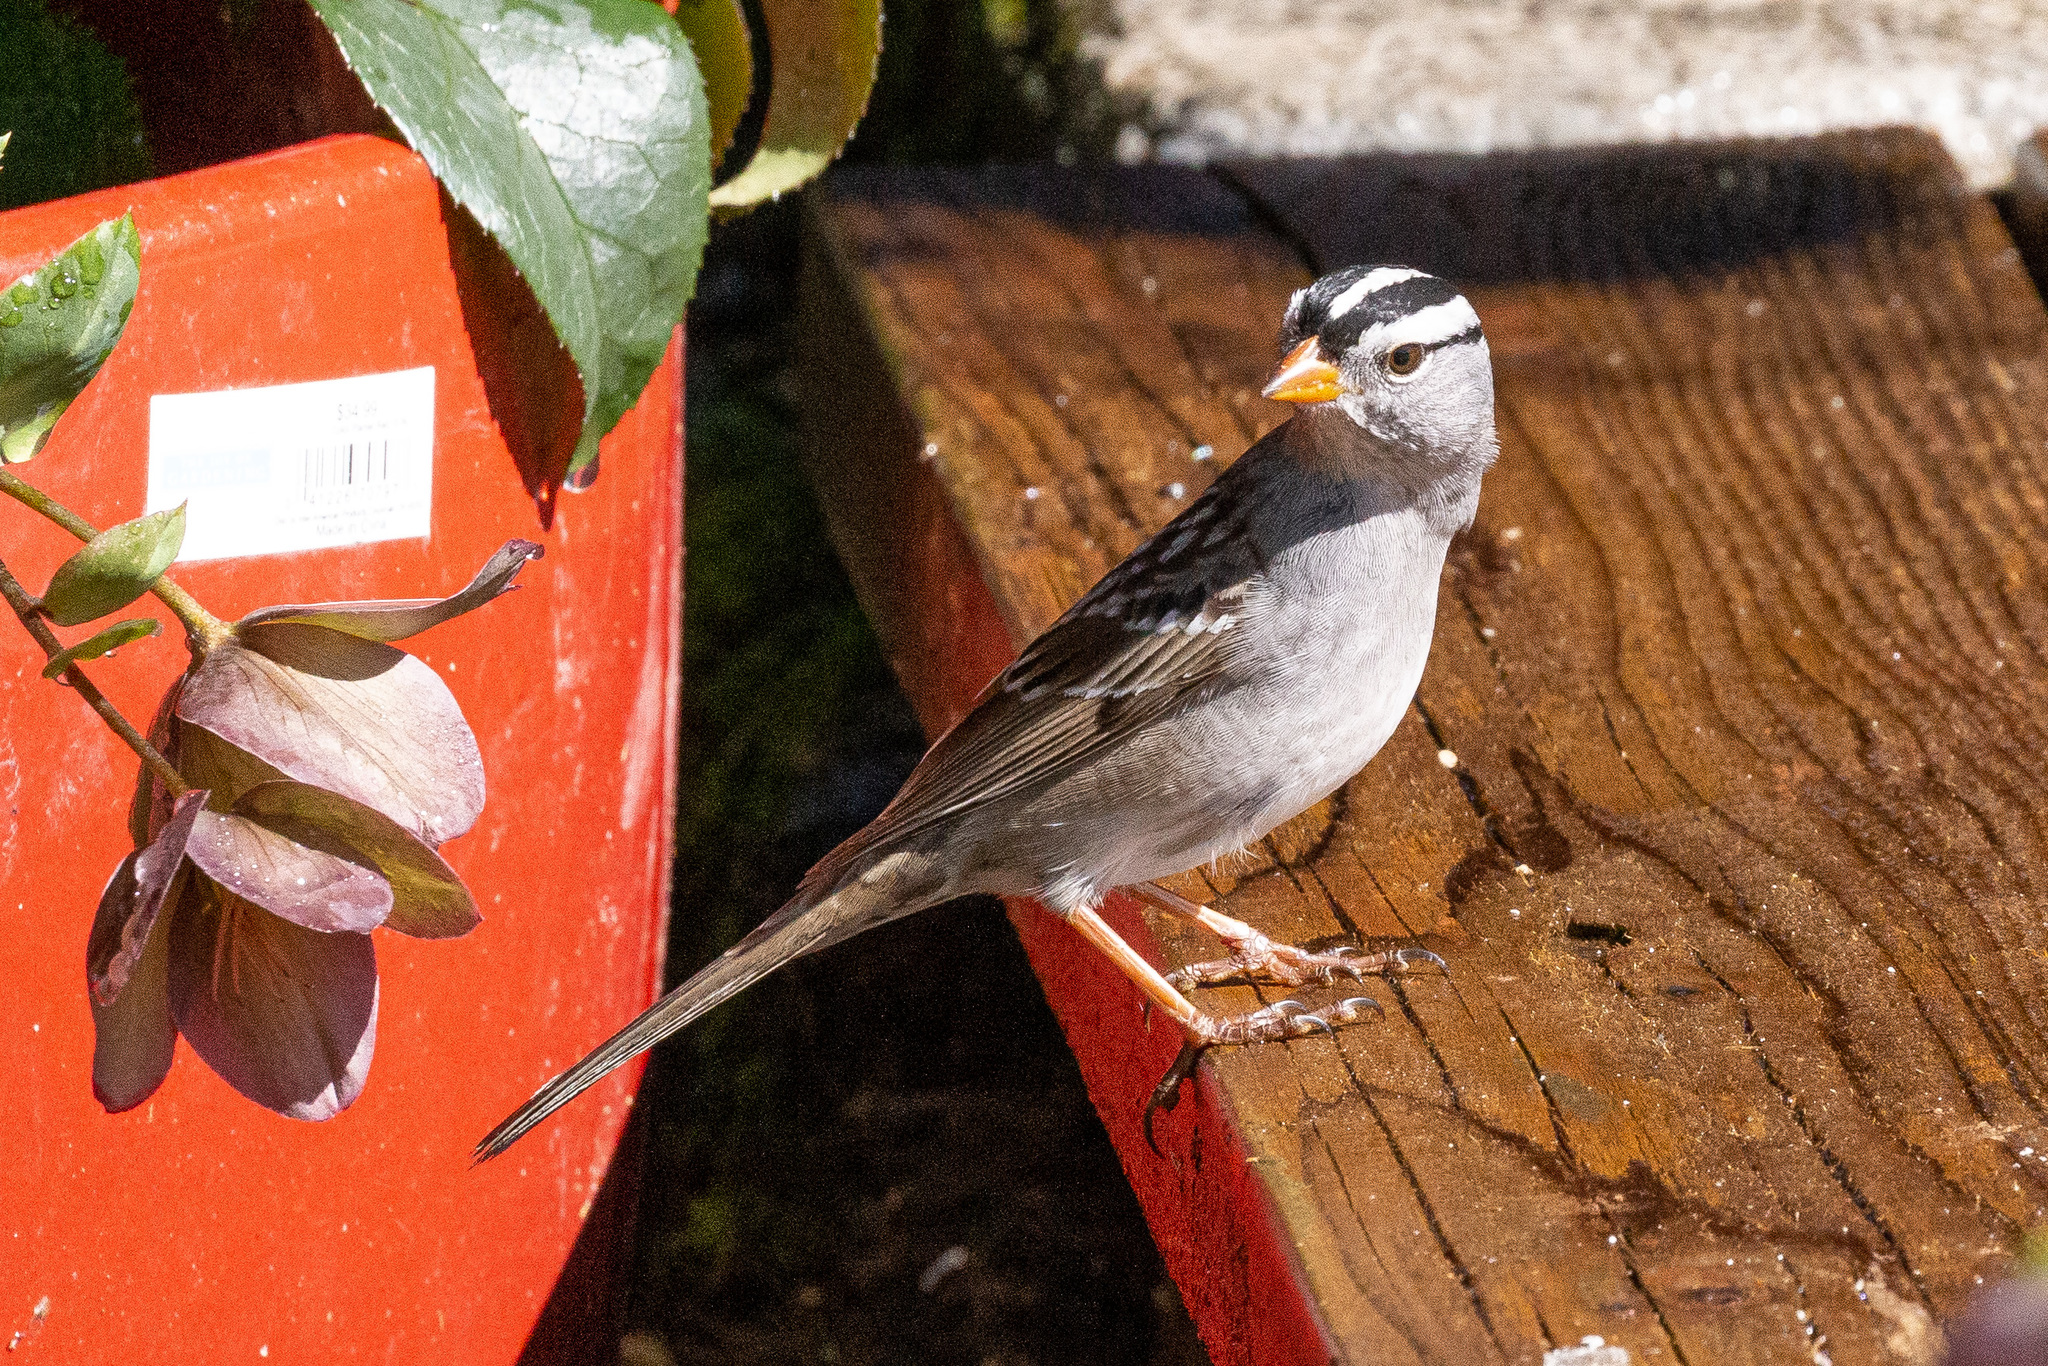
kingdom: Animalia
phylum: Chordata
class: Aves
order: Passeriformes
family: Passerellidae
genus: Zonotrichia
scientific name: Zonotrichia leucophrys
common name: White-crowned sparrow
